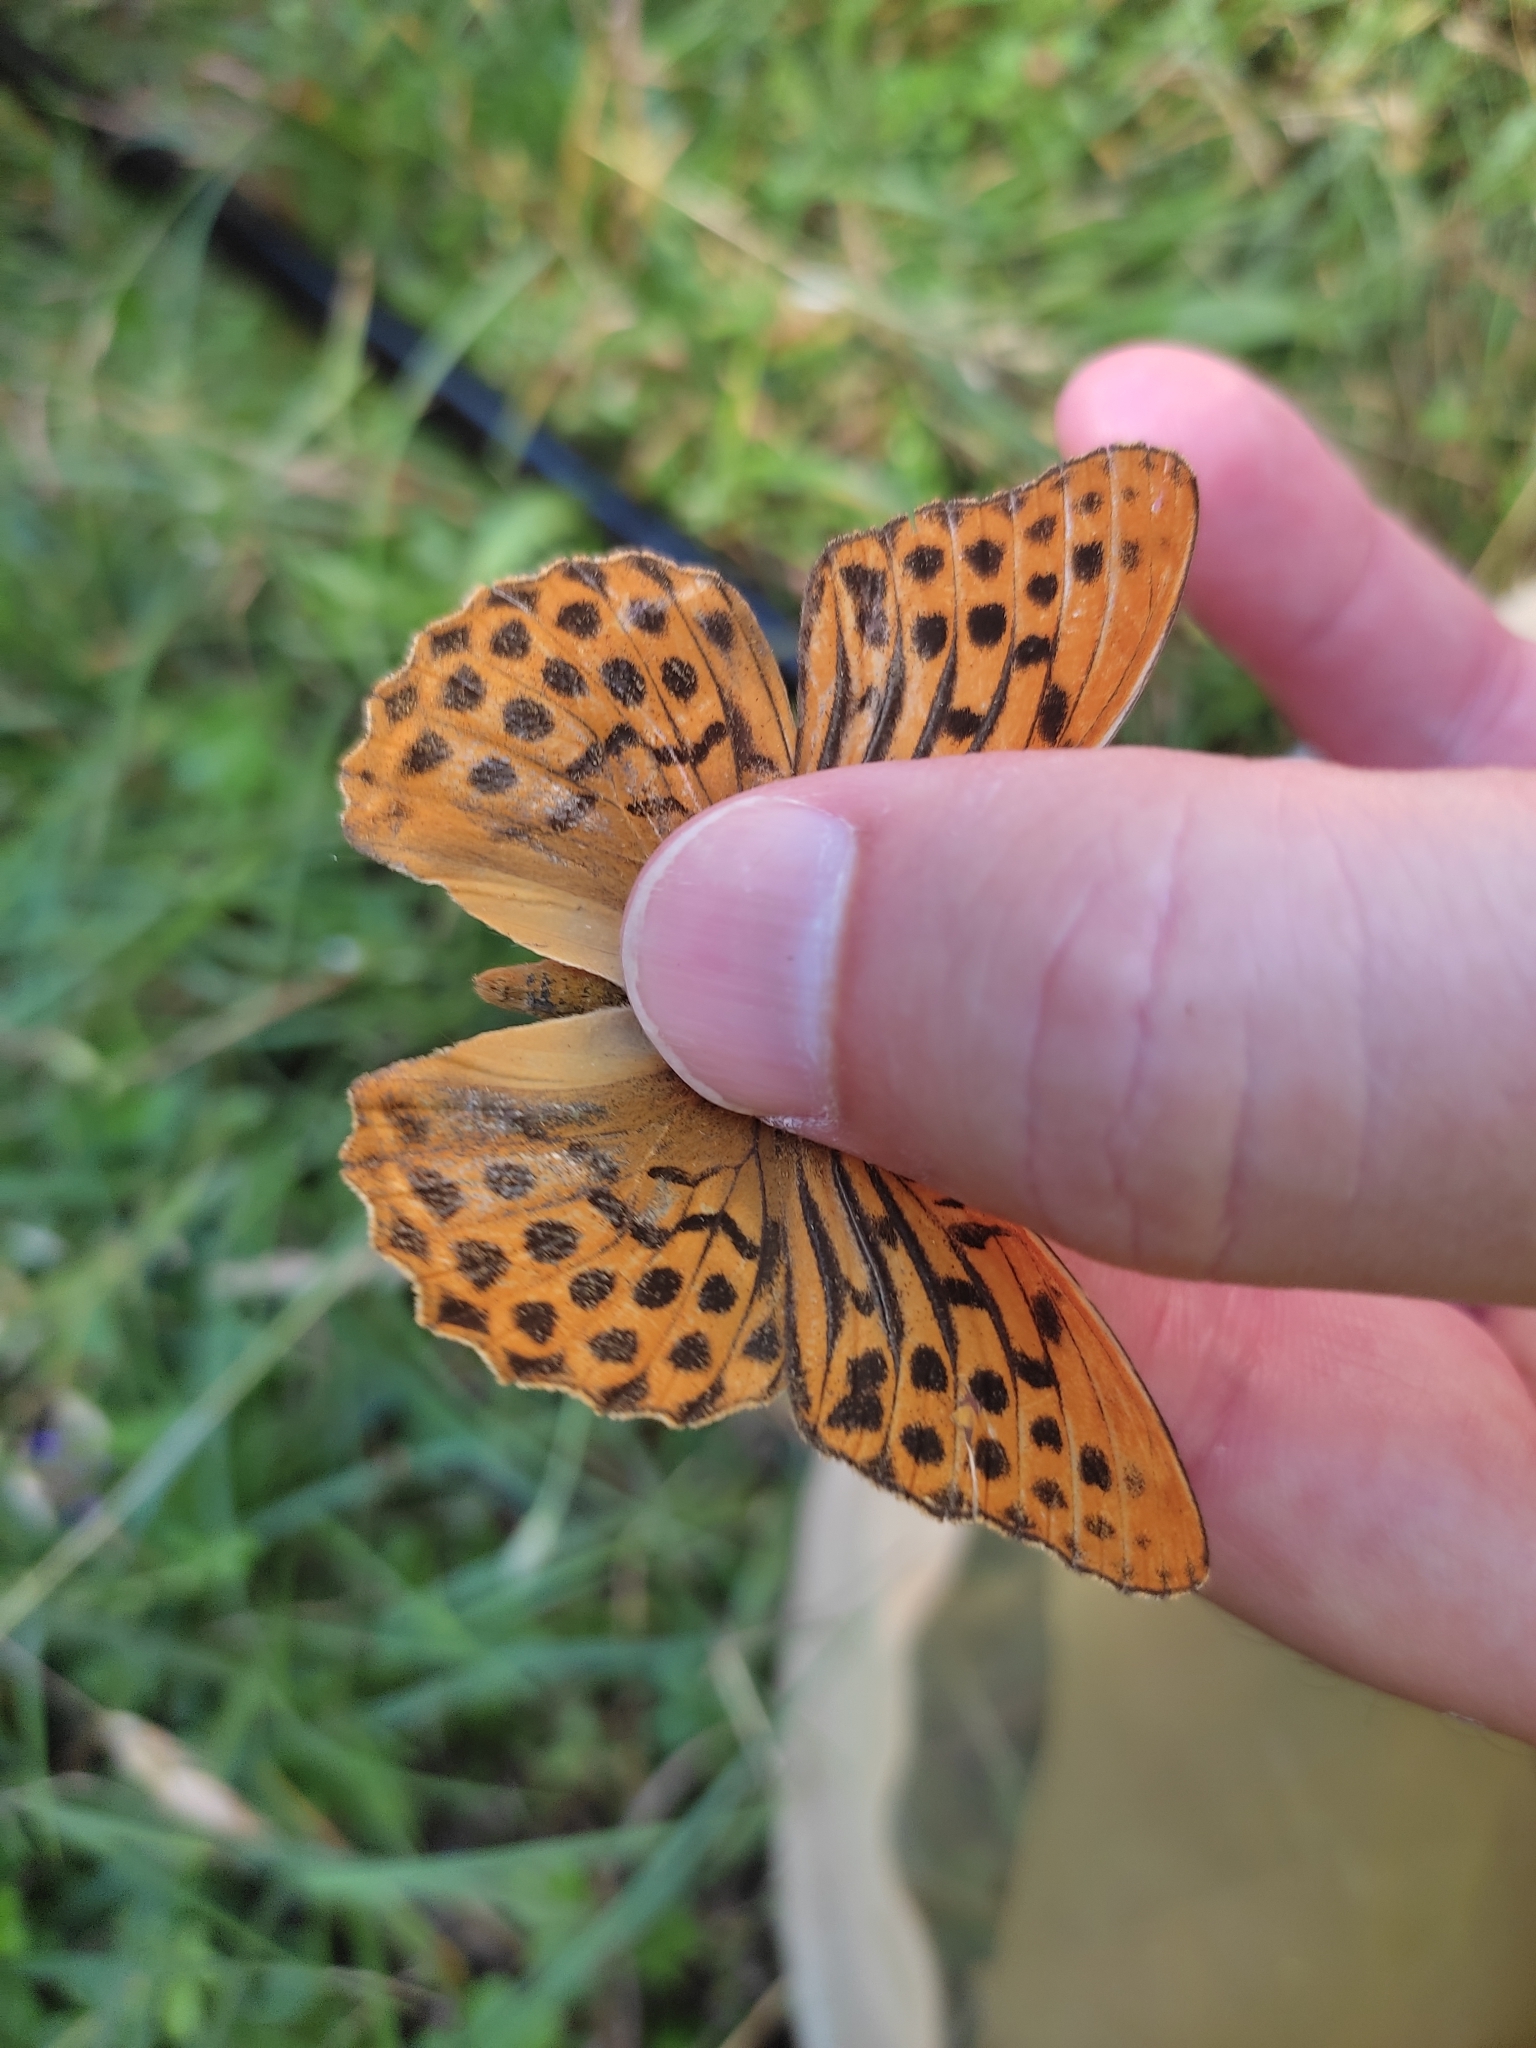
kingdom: Animalia
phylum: Arthropoda
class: Insecta
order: Lepidoptera
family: Nymphalidae
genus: Argynnis
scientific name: Argynnis paphia
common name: Silver-washed fritillary
